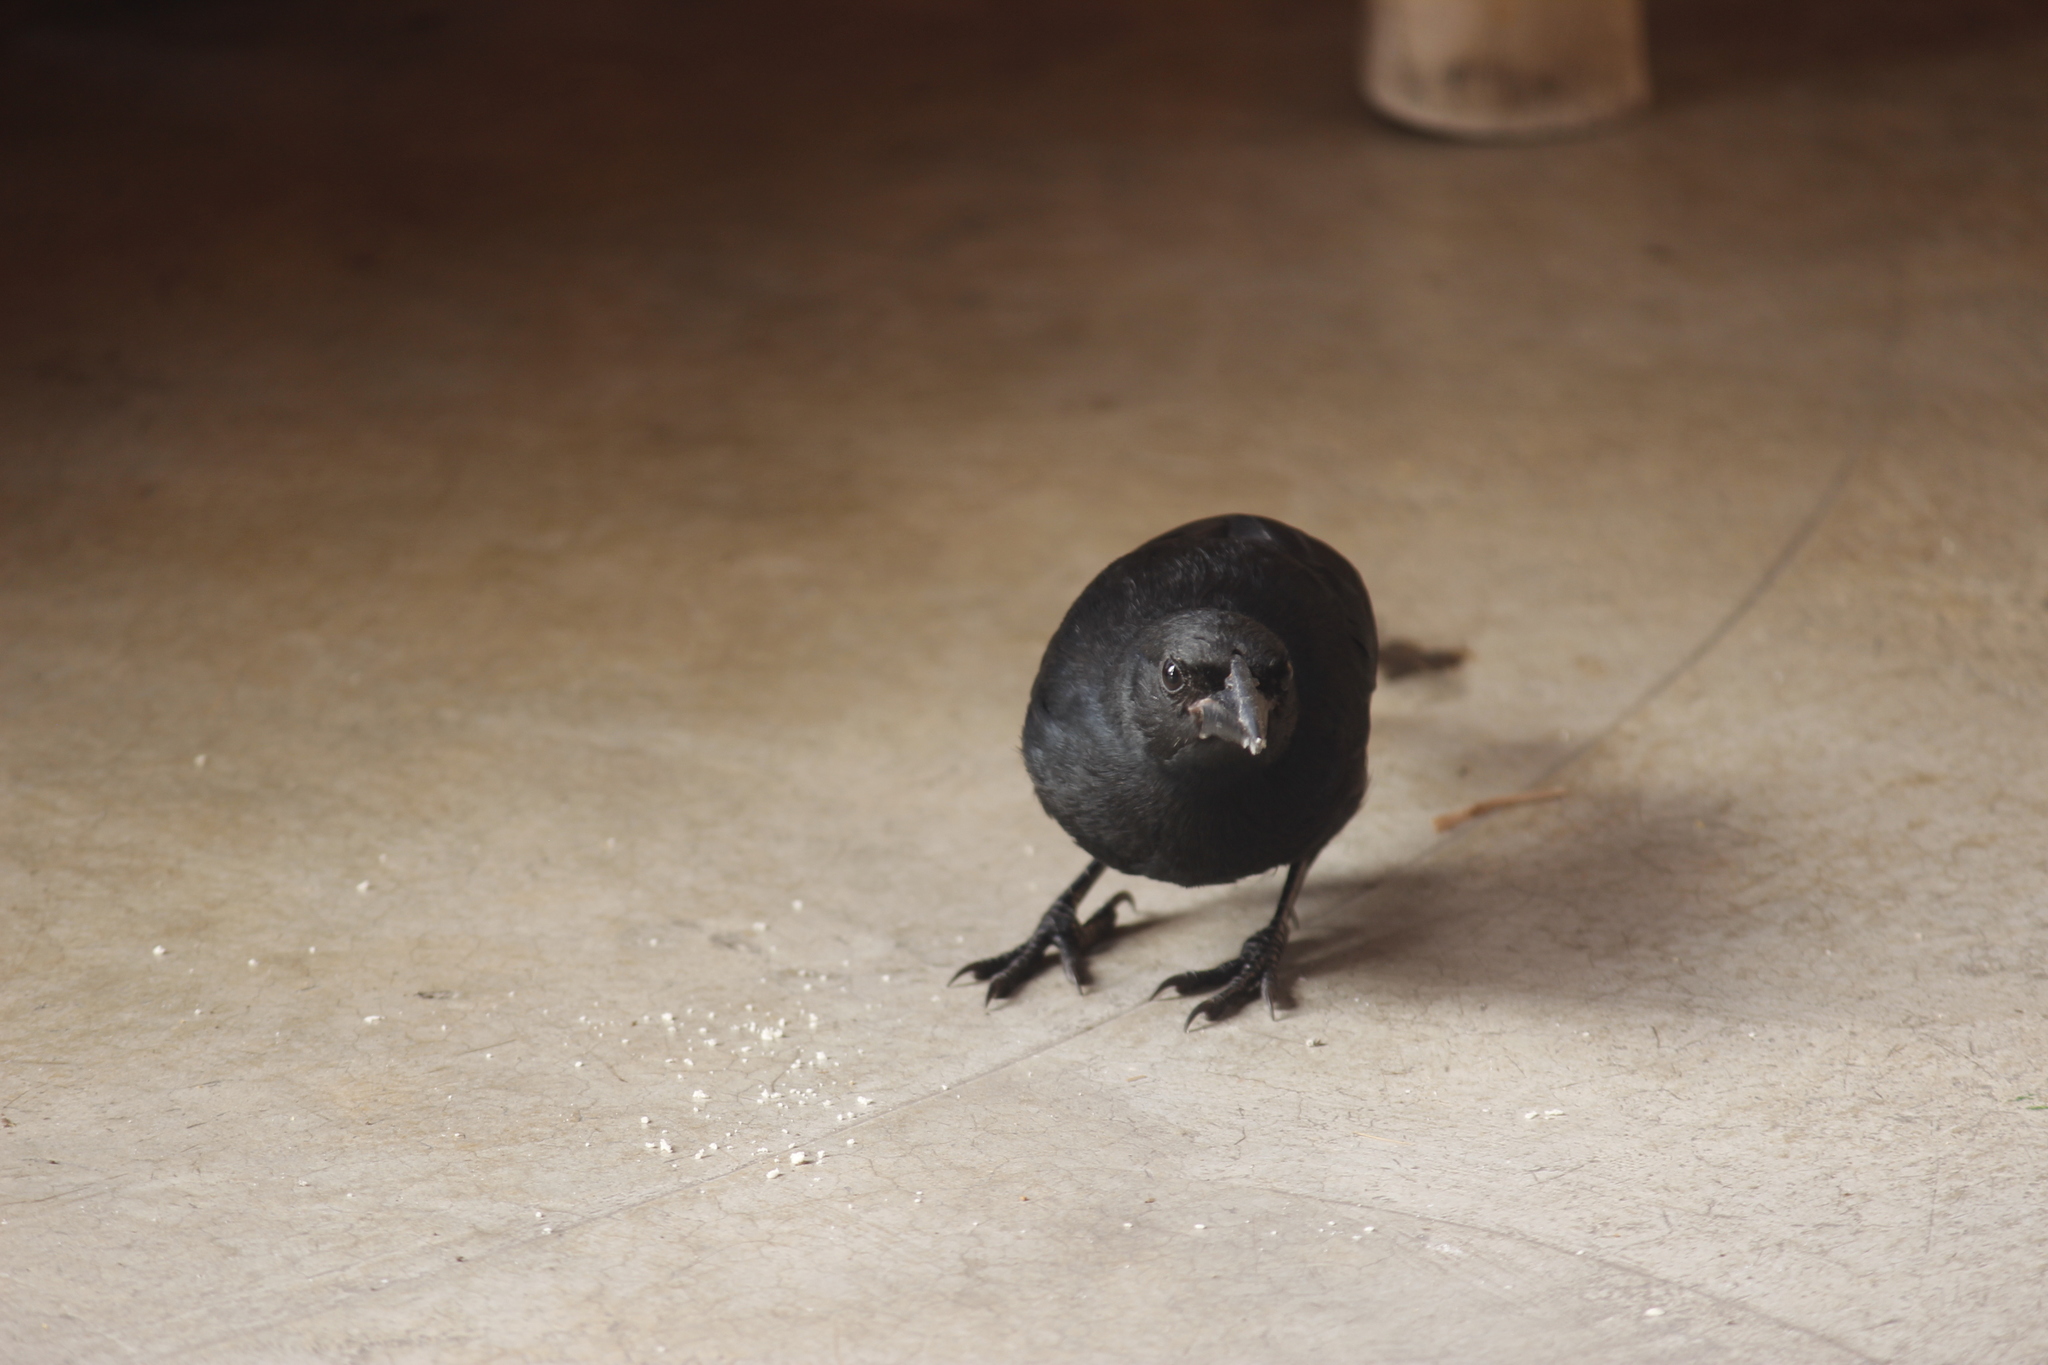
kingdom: Animalia
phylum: Chordata
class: Aves
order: Passeriformes
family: Icteridae
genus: Molothrus
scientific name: Molothrus bonariensis
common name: Shiny cowbird
